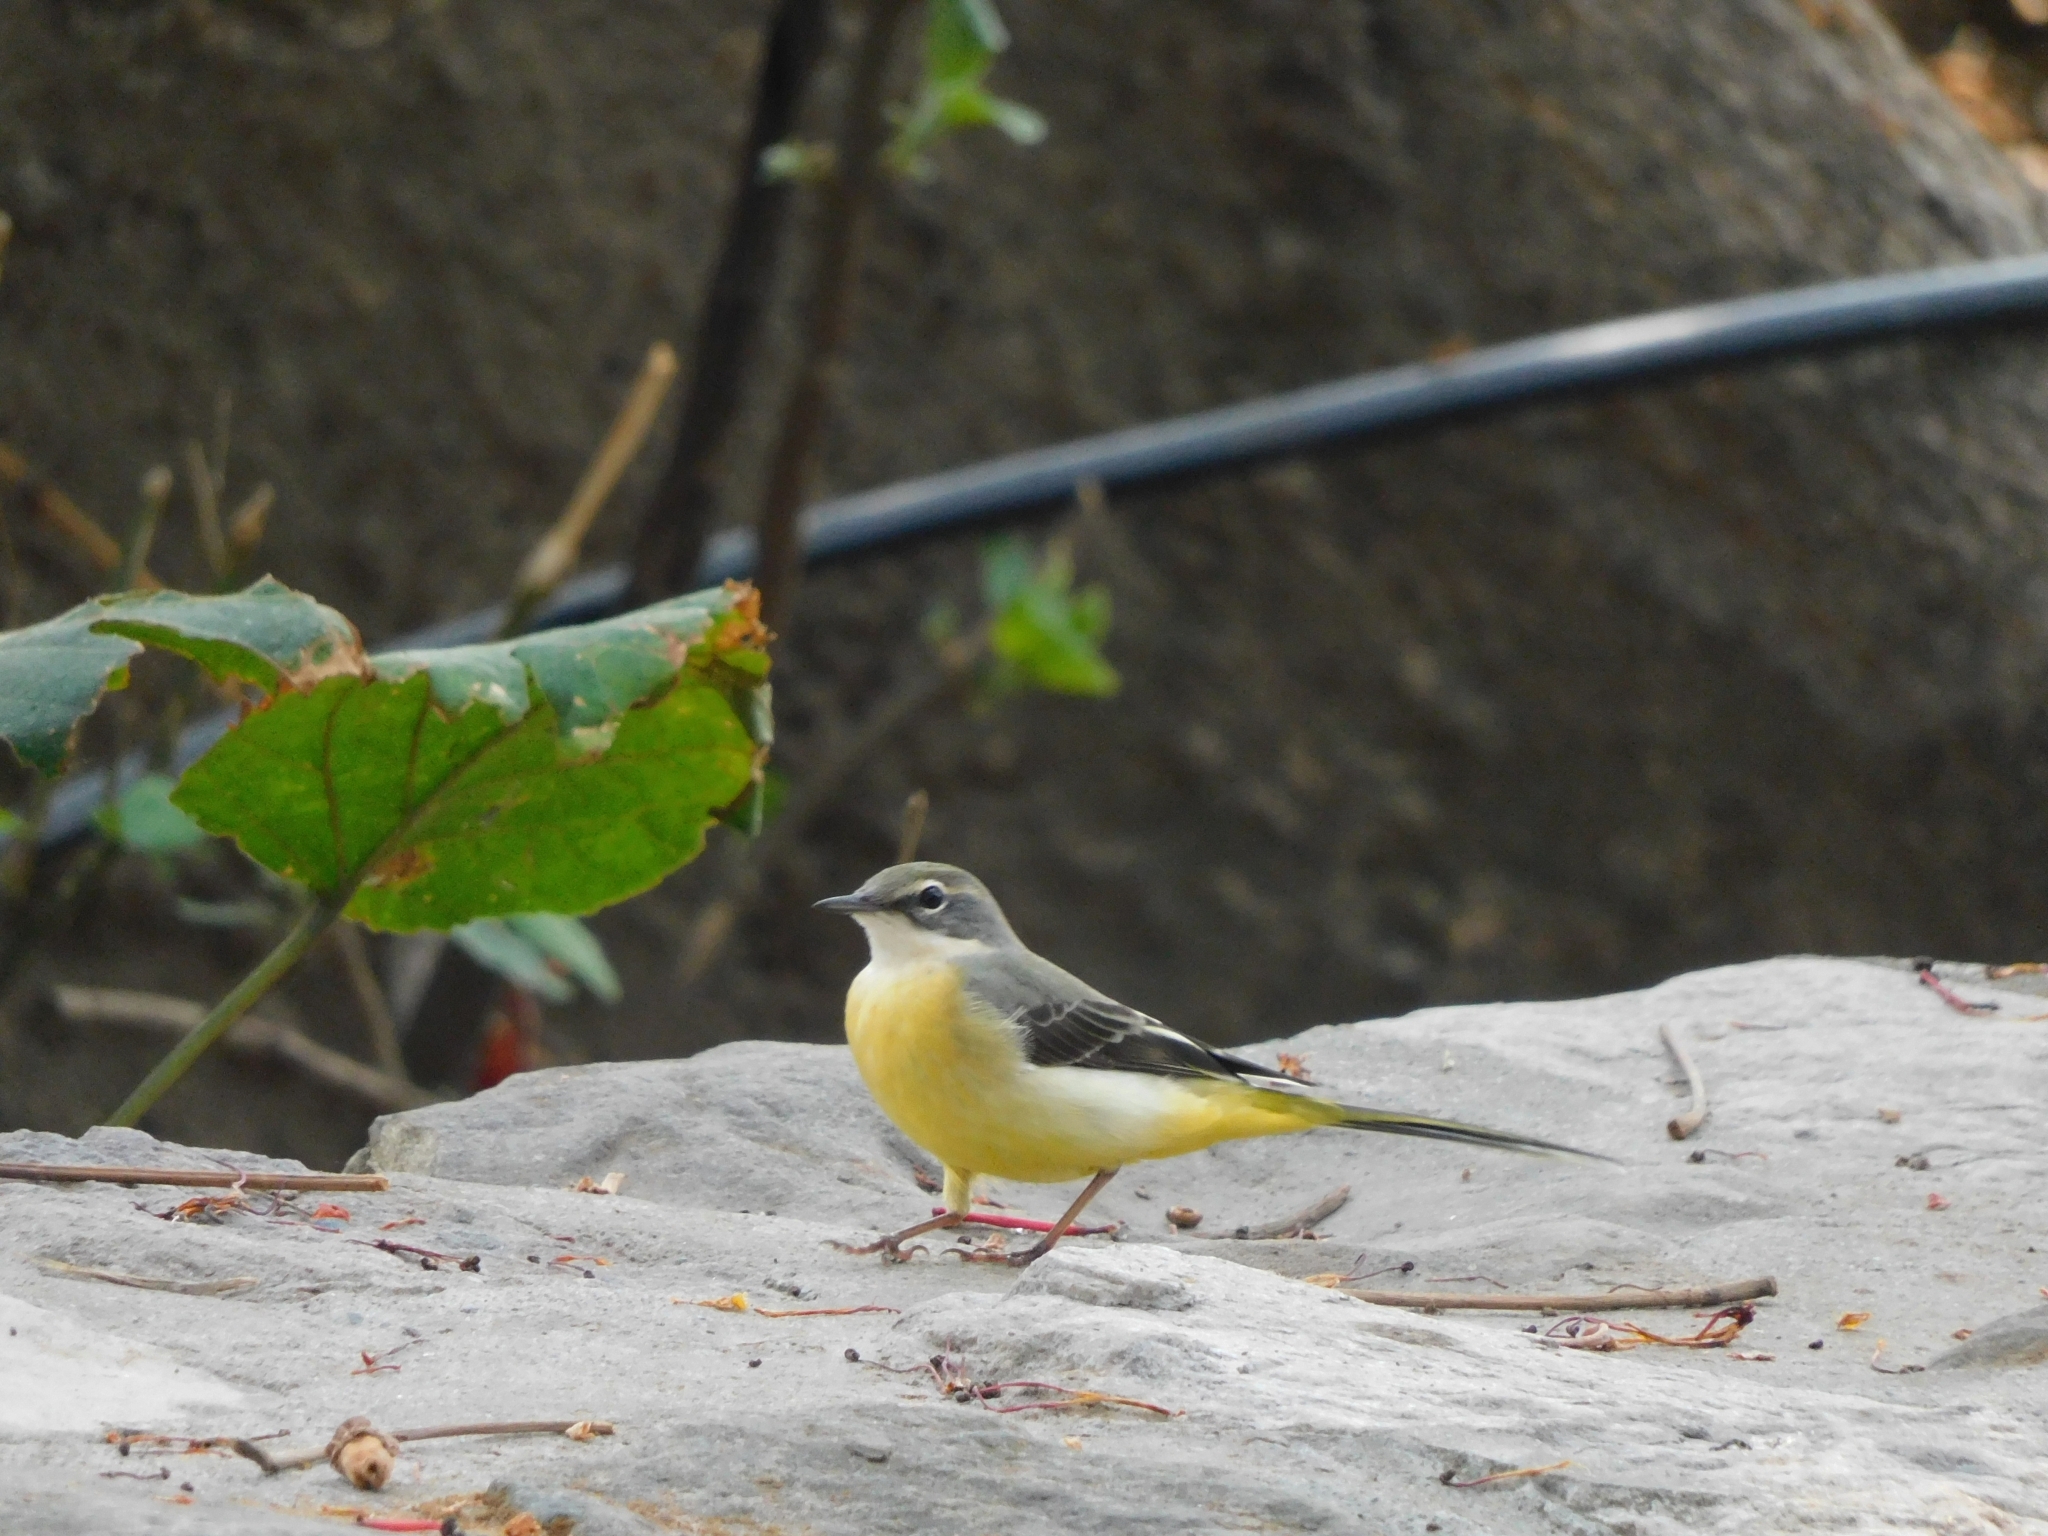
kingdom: Animalia
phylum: Chordata
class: Aves
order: Passeriformes
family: Motacillidae
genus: Motacilla
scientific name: Motacilla cinerea
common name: Grey wagtail
